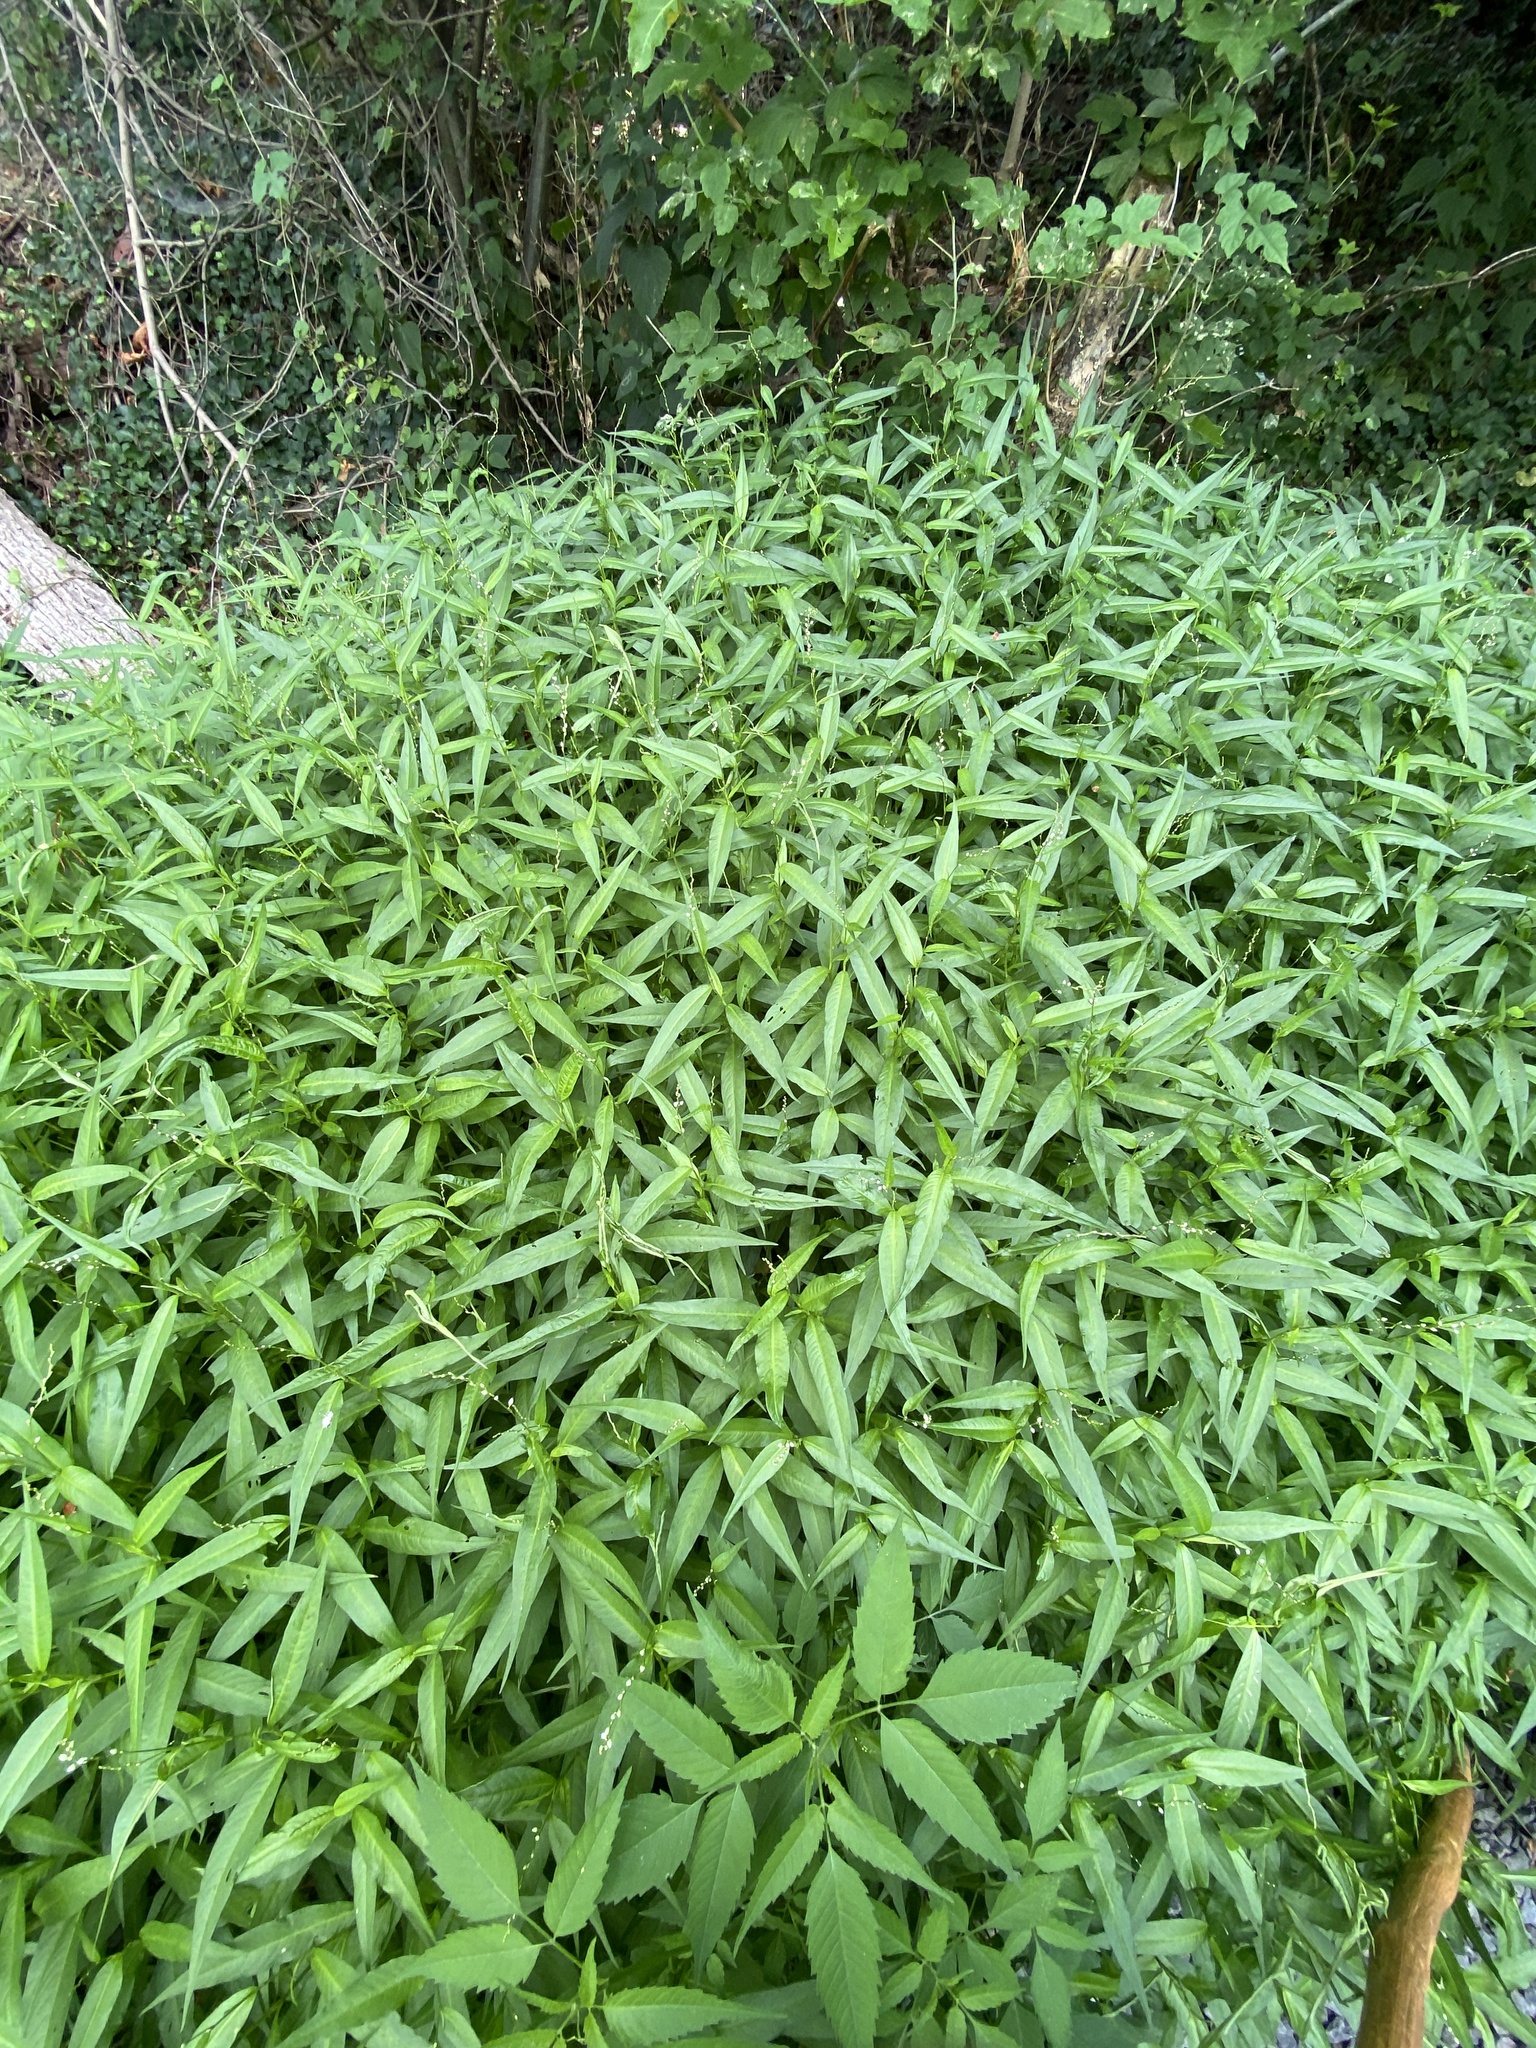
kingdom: Plantae
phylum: Tracheophyta
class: Magnoliopsida
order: Caryophyllales
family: Polygonaceae
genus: Persicaria
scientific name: Persicaria punctata
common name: Dotted smartweed
